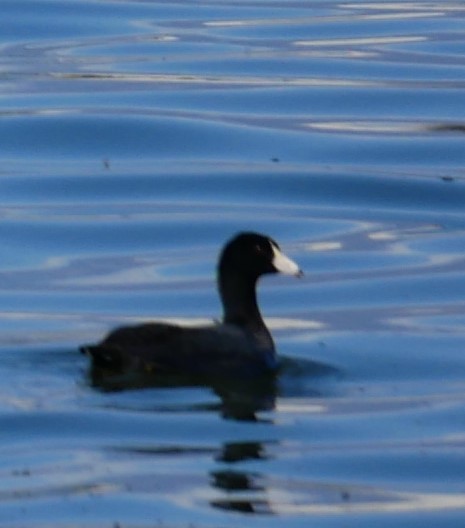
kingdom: Animalia
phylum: Chordata
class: Aves
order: Gruiformes
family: Rallidae
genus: Fulica
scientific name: Fulica americana
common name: American coot
